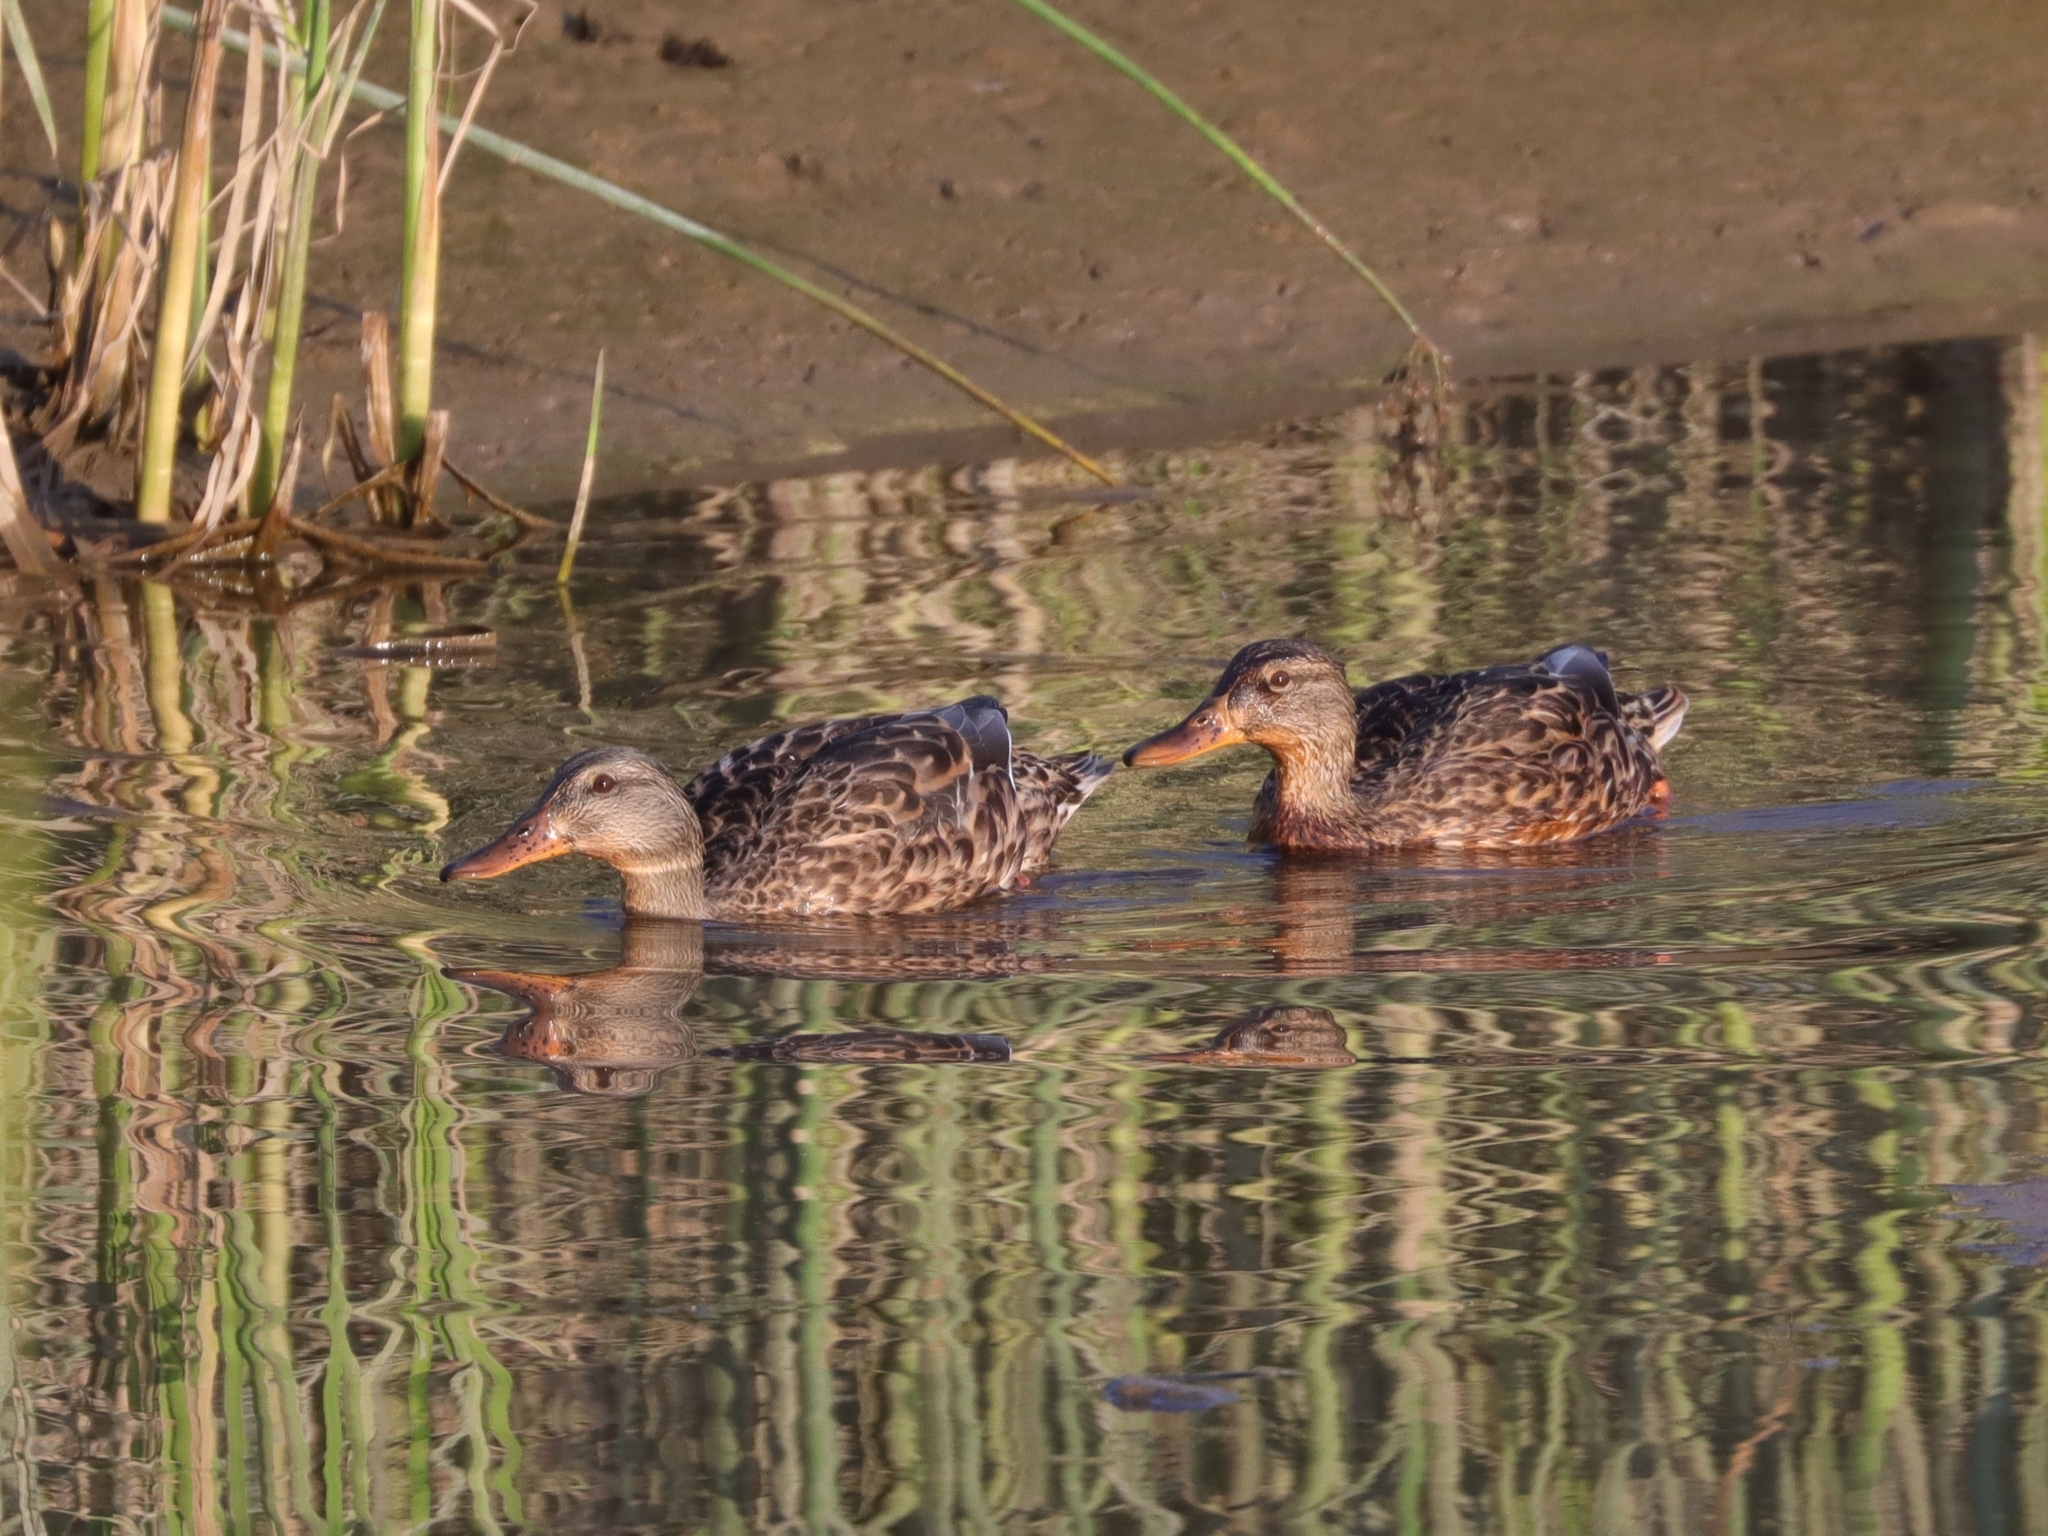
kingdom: Animalia
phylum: Chordata
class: Aves
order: Anseriformes
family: Anatidae
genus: Anas
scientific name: Anas platyrhynchos
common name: Mallard
